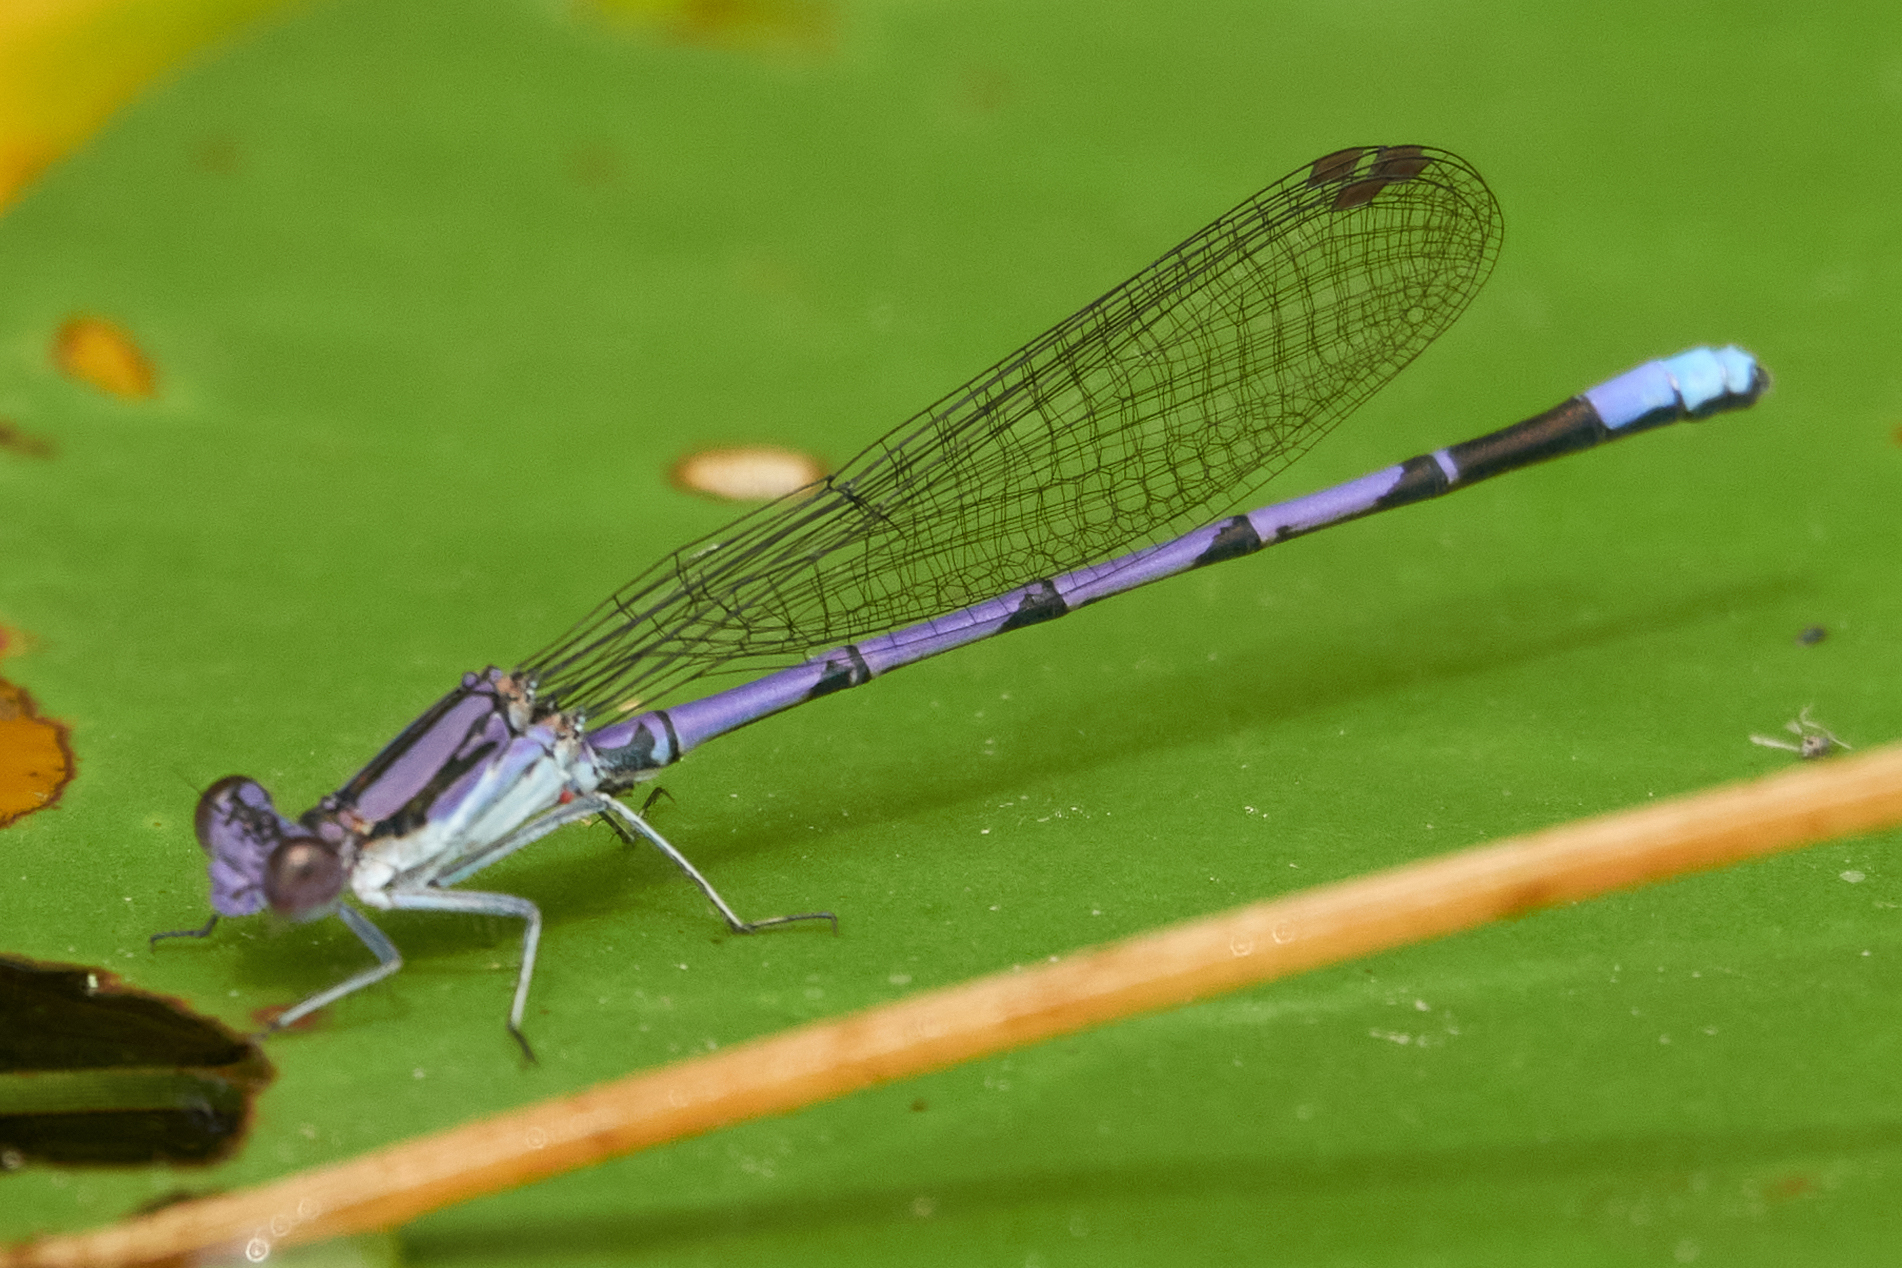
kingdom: Animalia
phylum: Arthropoda
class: Insecta
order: Odonata
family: Coenagrionidae
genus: Argia
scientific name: Argia fumipennis
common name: Variable dancer
